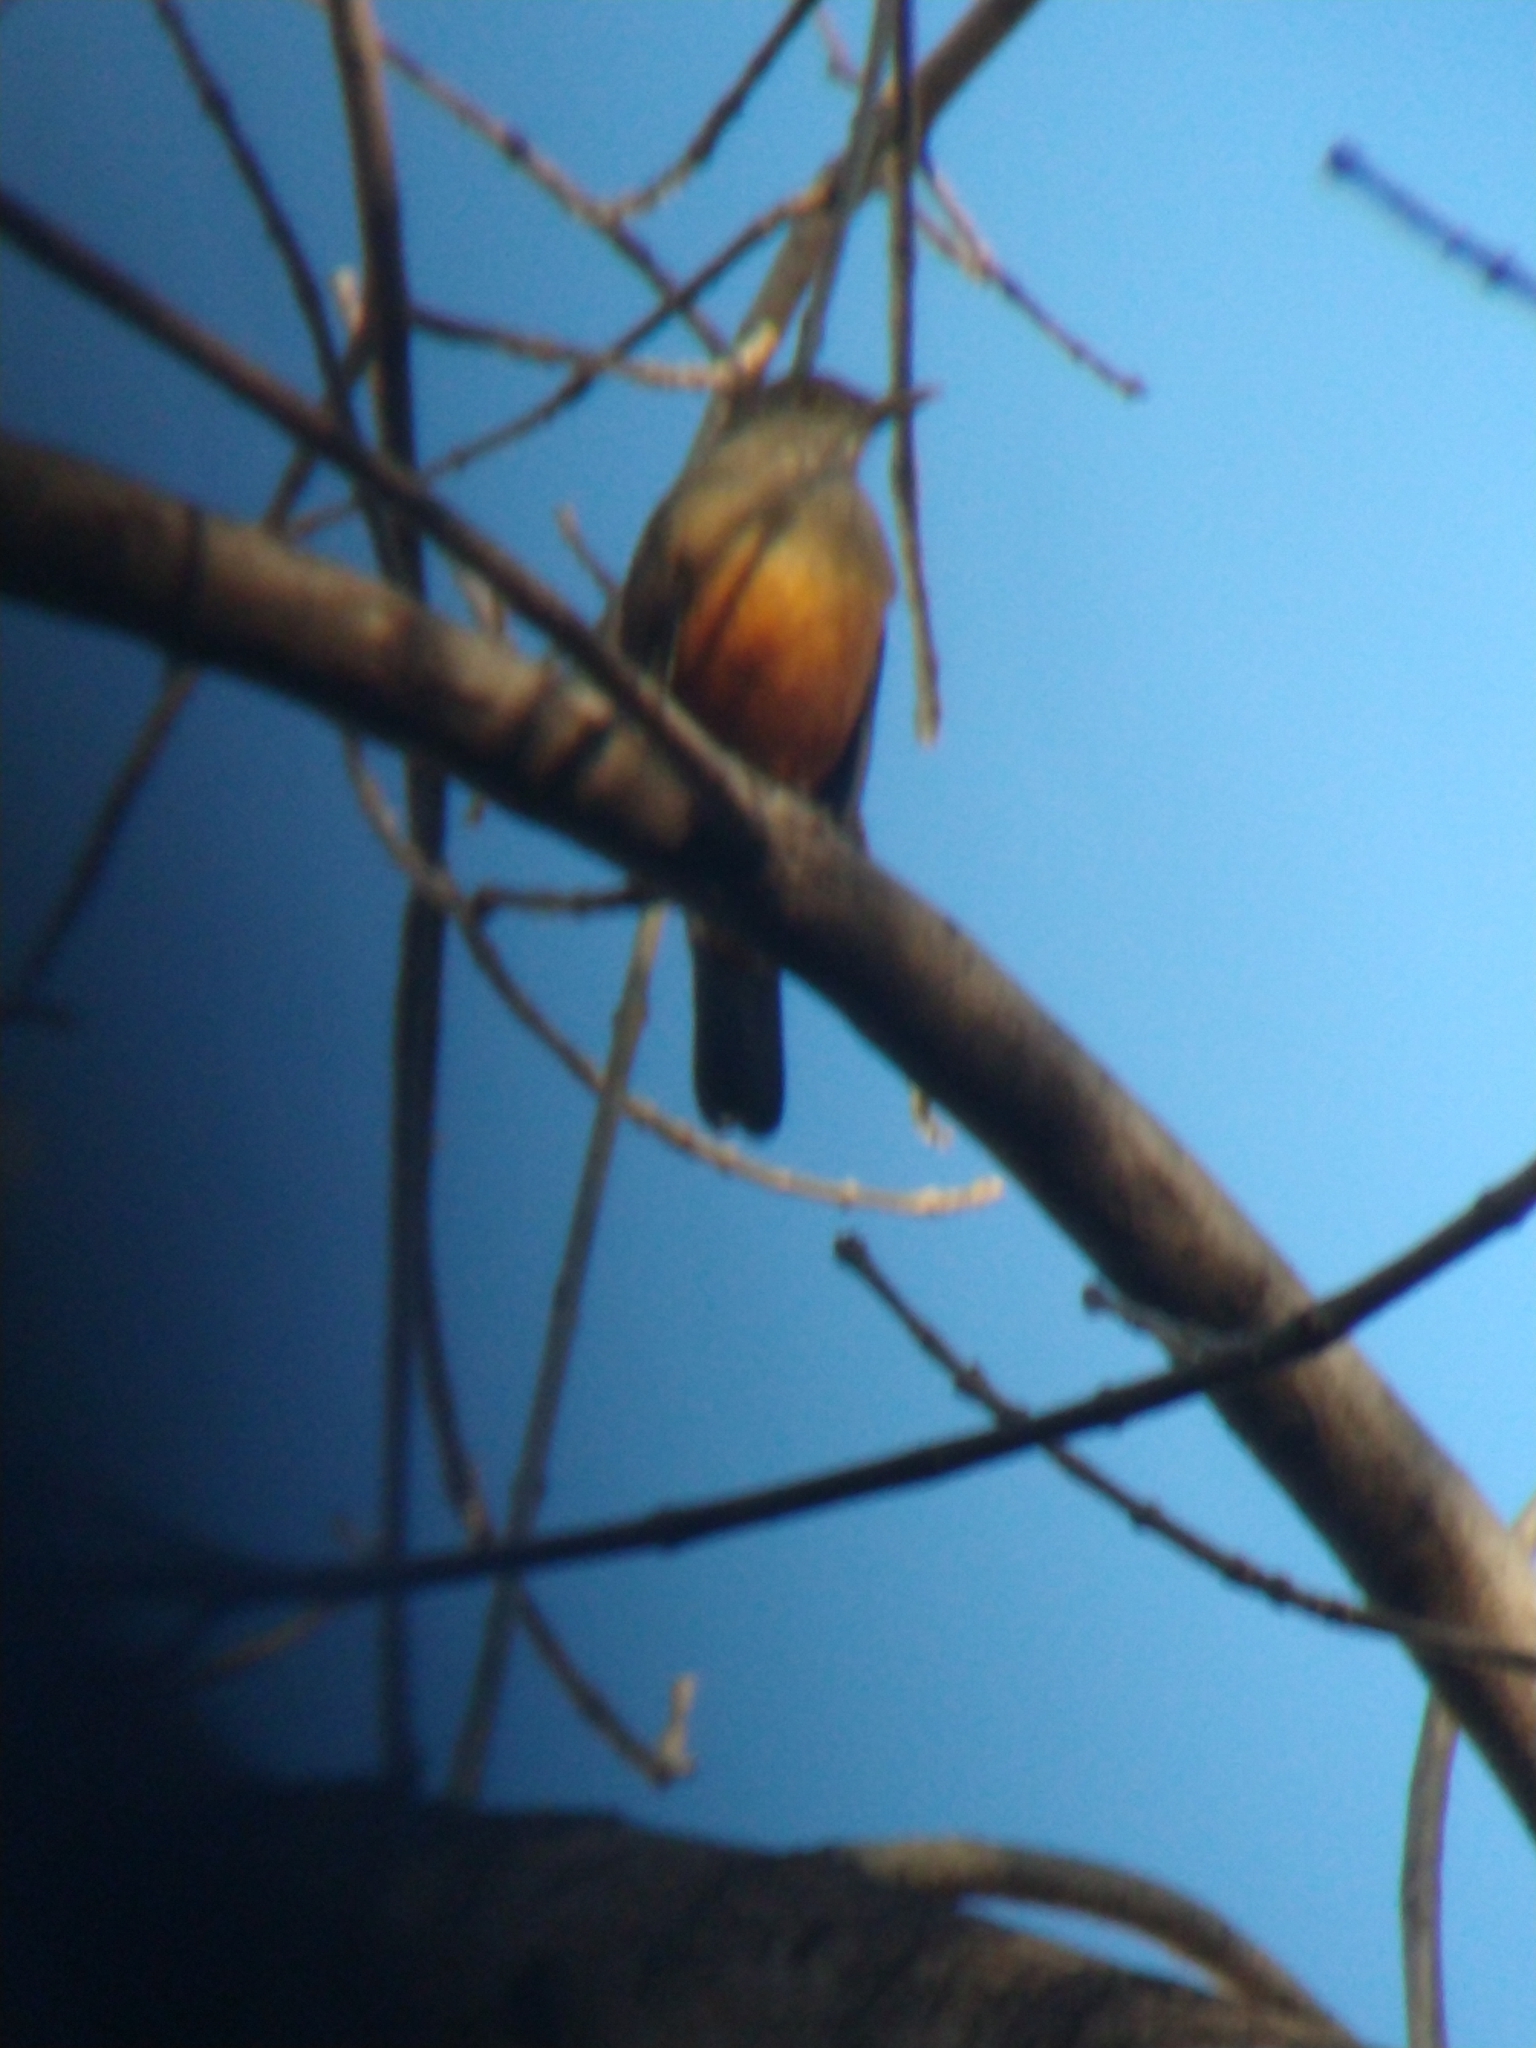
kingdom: Animalia
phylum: Chordata
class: Aves
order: Passeriformes
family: Turdidae
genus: Turdus
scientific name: Turdus rufiventris
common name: Rufous-bellied thrush
